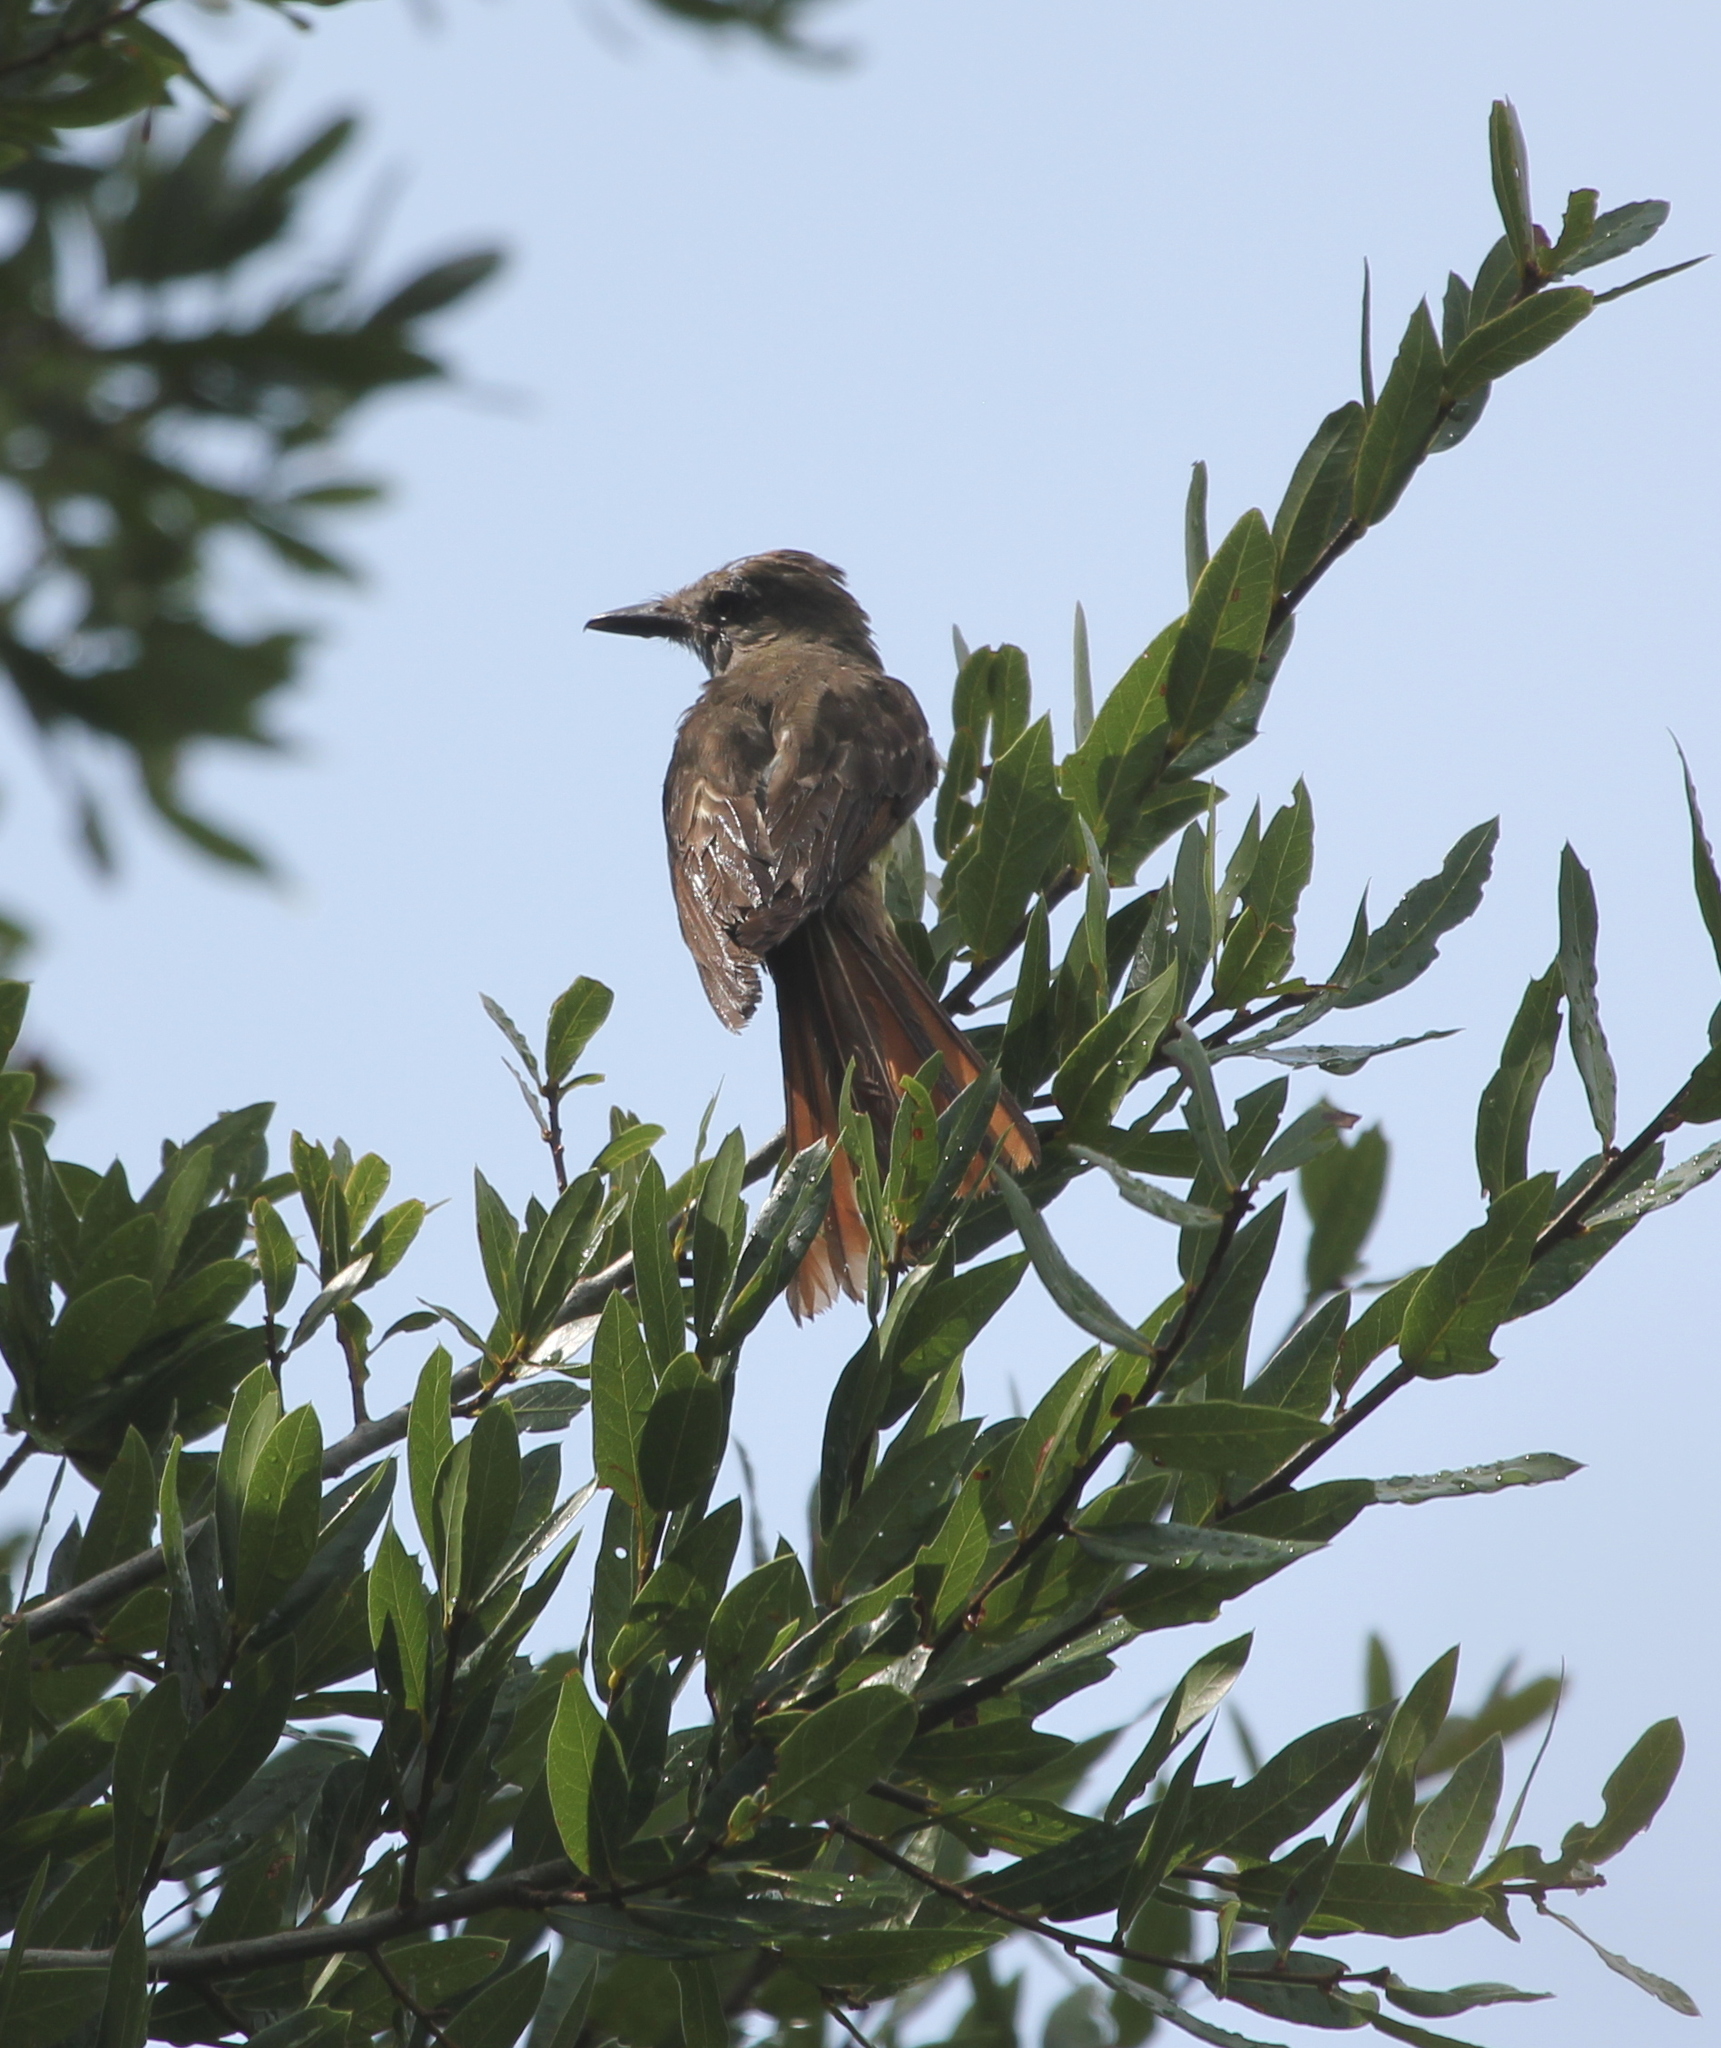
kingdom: Animalia
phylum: Chordata
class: Aves
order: Passeriformes
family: Tyrannidae
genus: Myiarchus
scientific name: Myiarchus crinitus
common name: Great crested flycatcher
